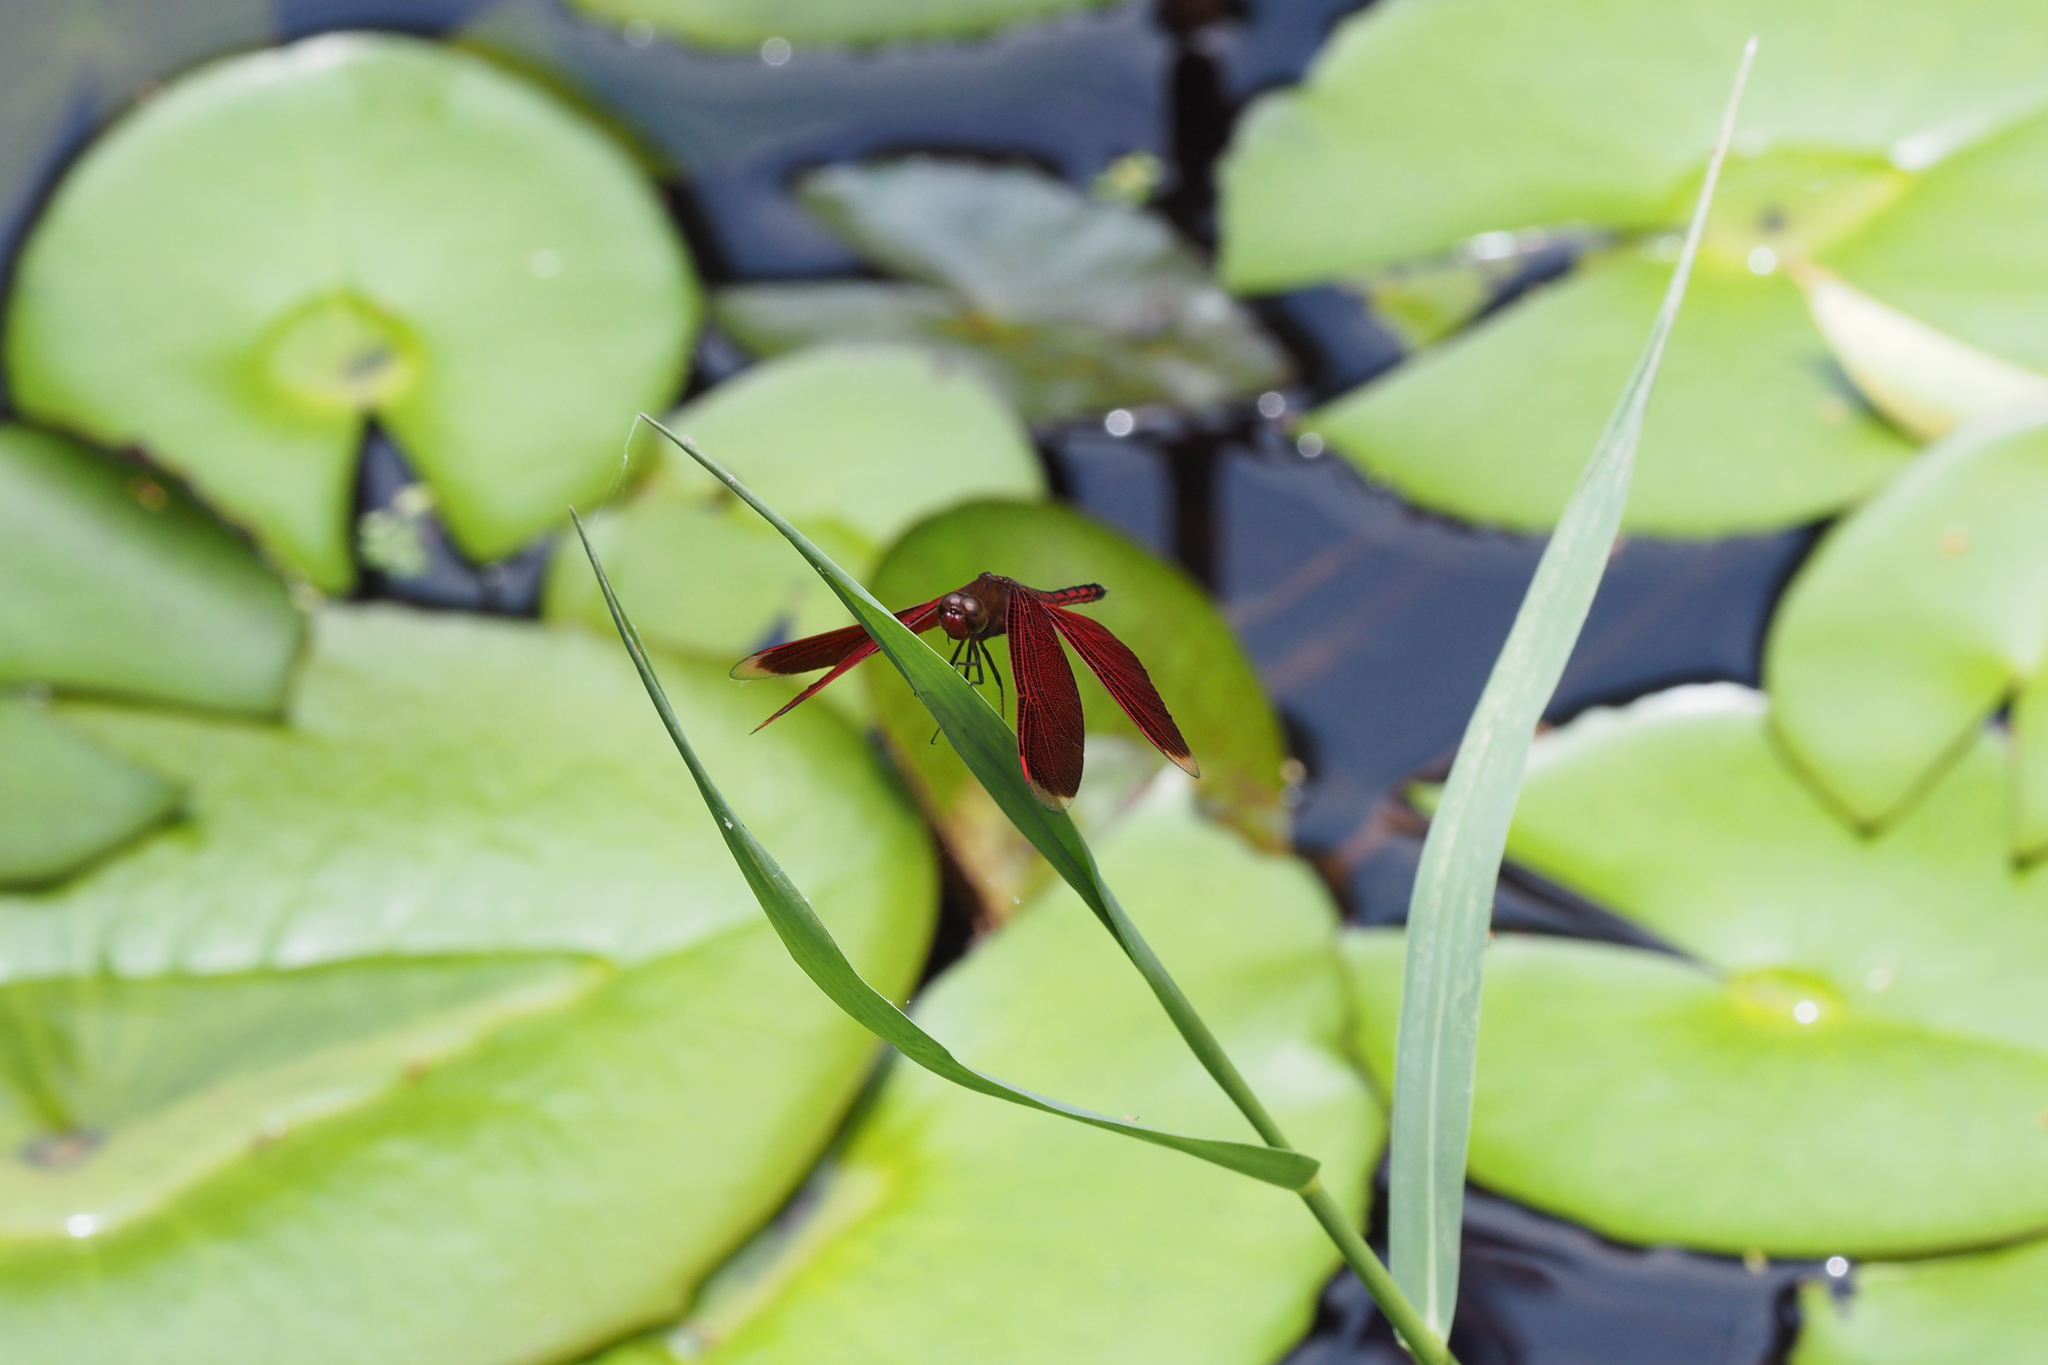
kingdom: Animalia
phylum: Arthropoda
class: Insecta
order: Odonata
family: Libellulidae
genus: Neurothemis
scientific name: Neurothemis taiwanensis
